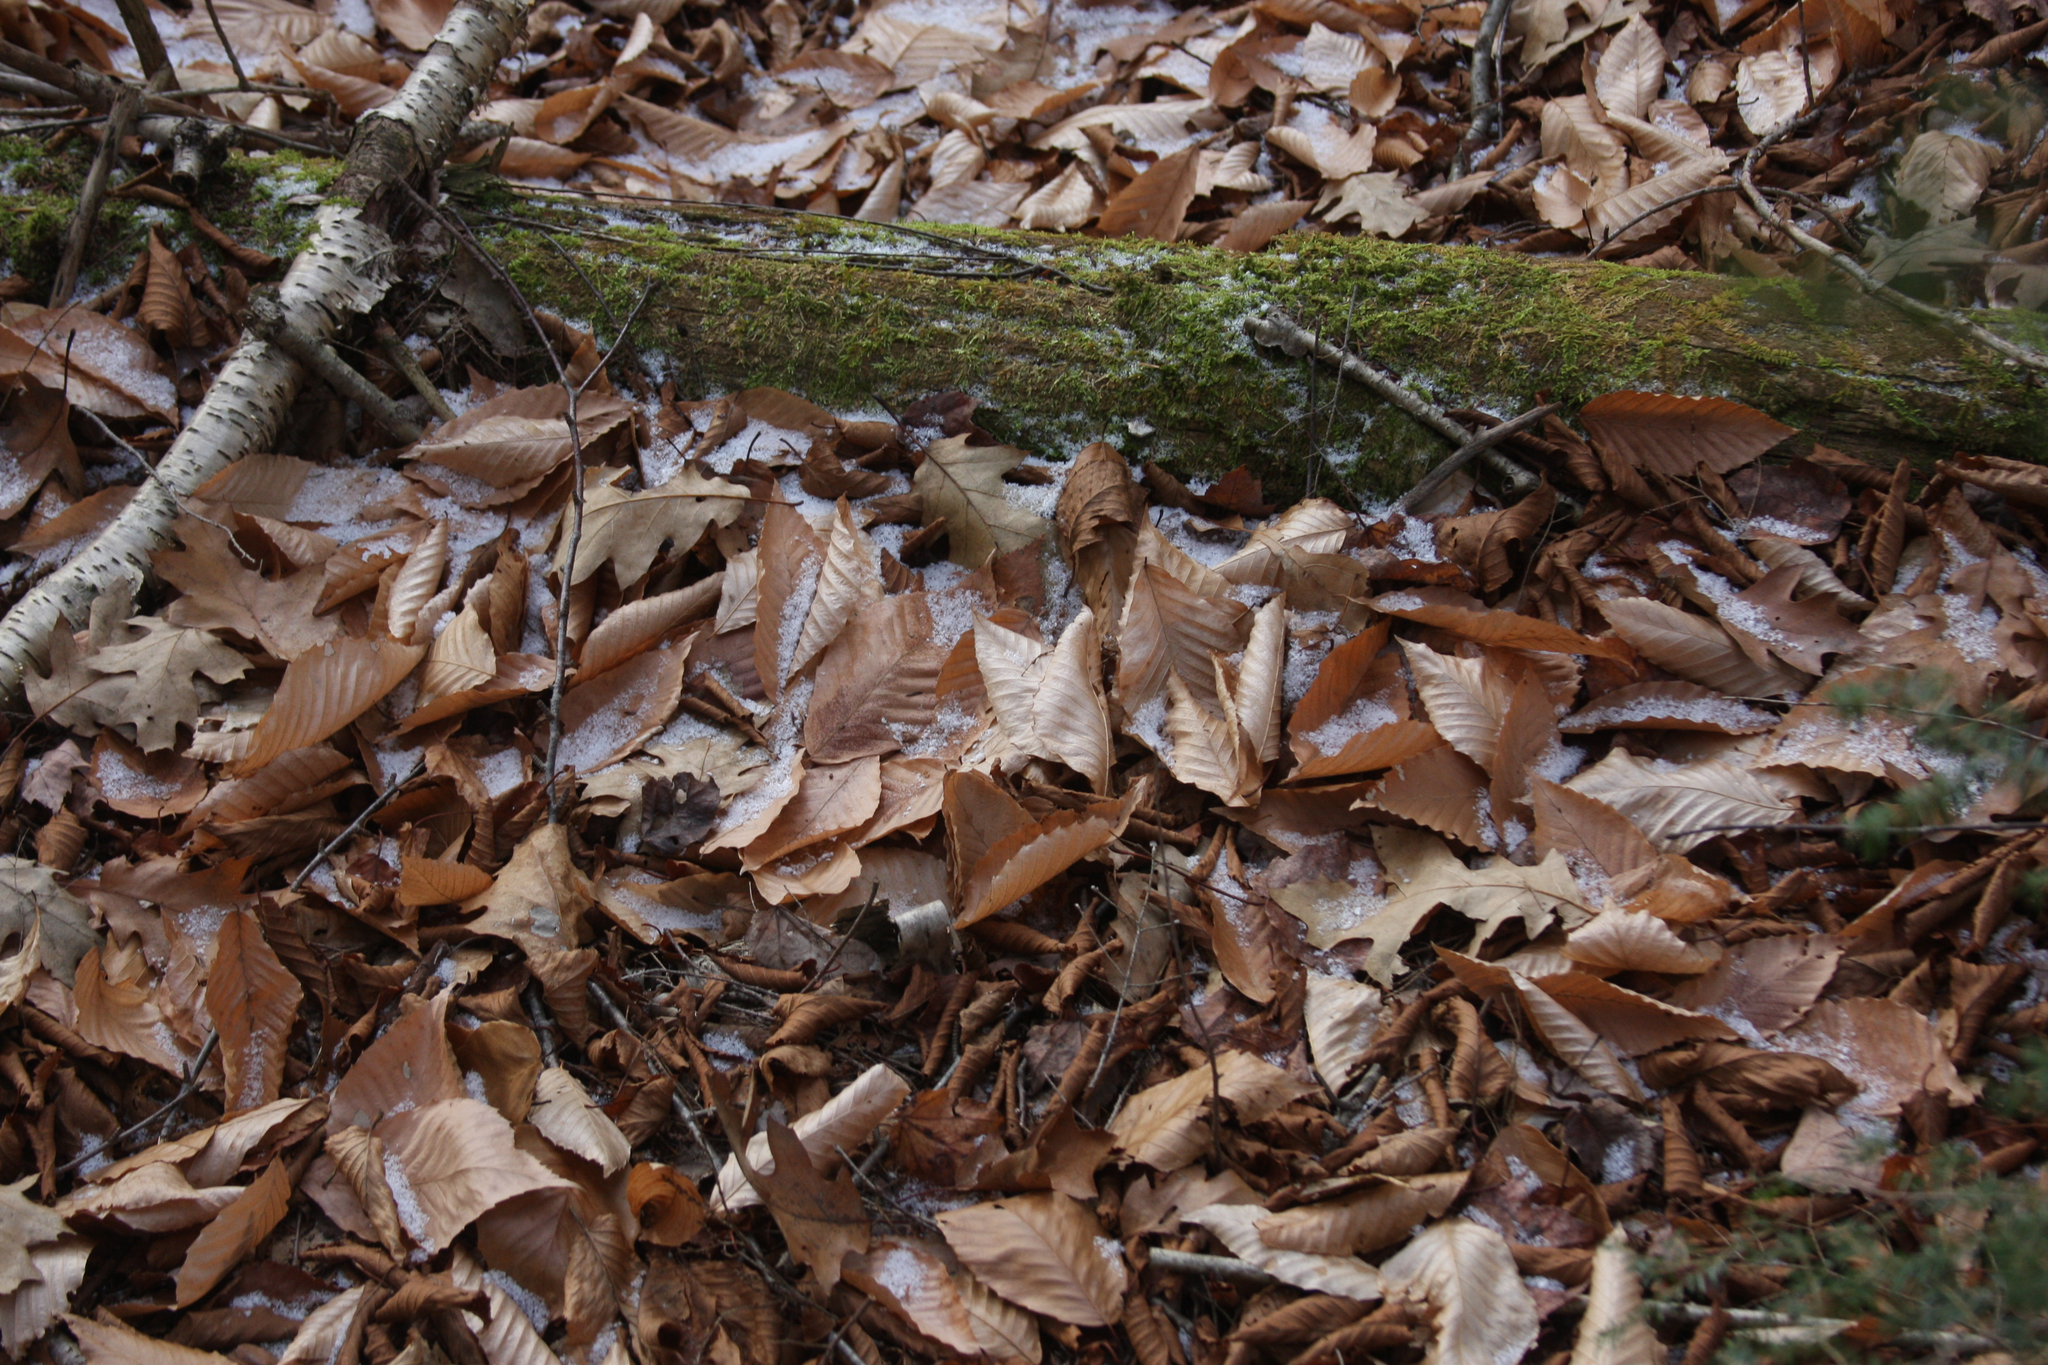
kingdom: Plantae
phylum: Tracheophyta
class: Magnoliopsida
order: Fagales
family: Fagaceae
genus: Fagus
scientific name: Fagus grandifolia
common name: American beech
